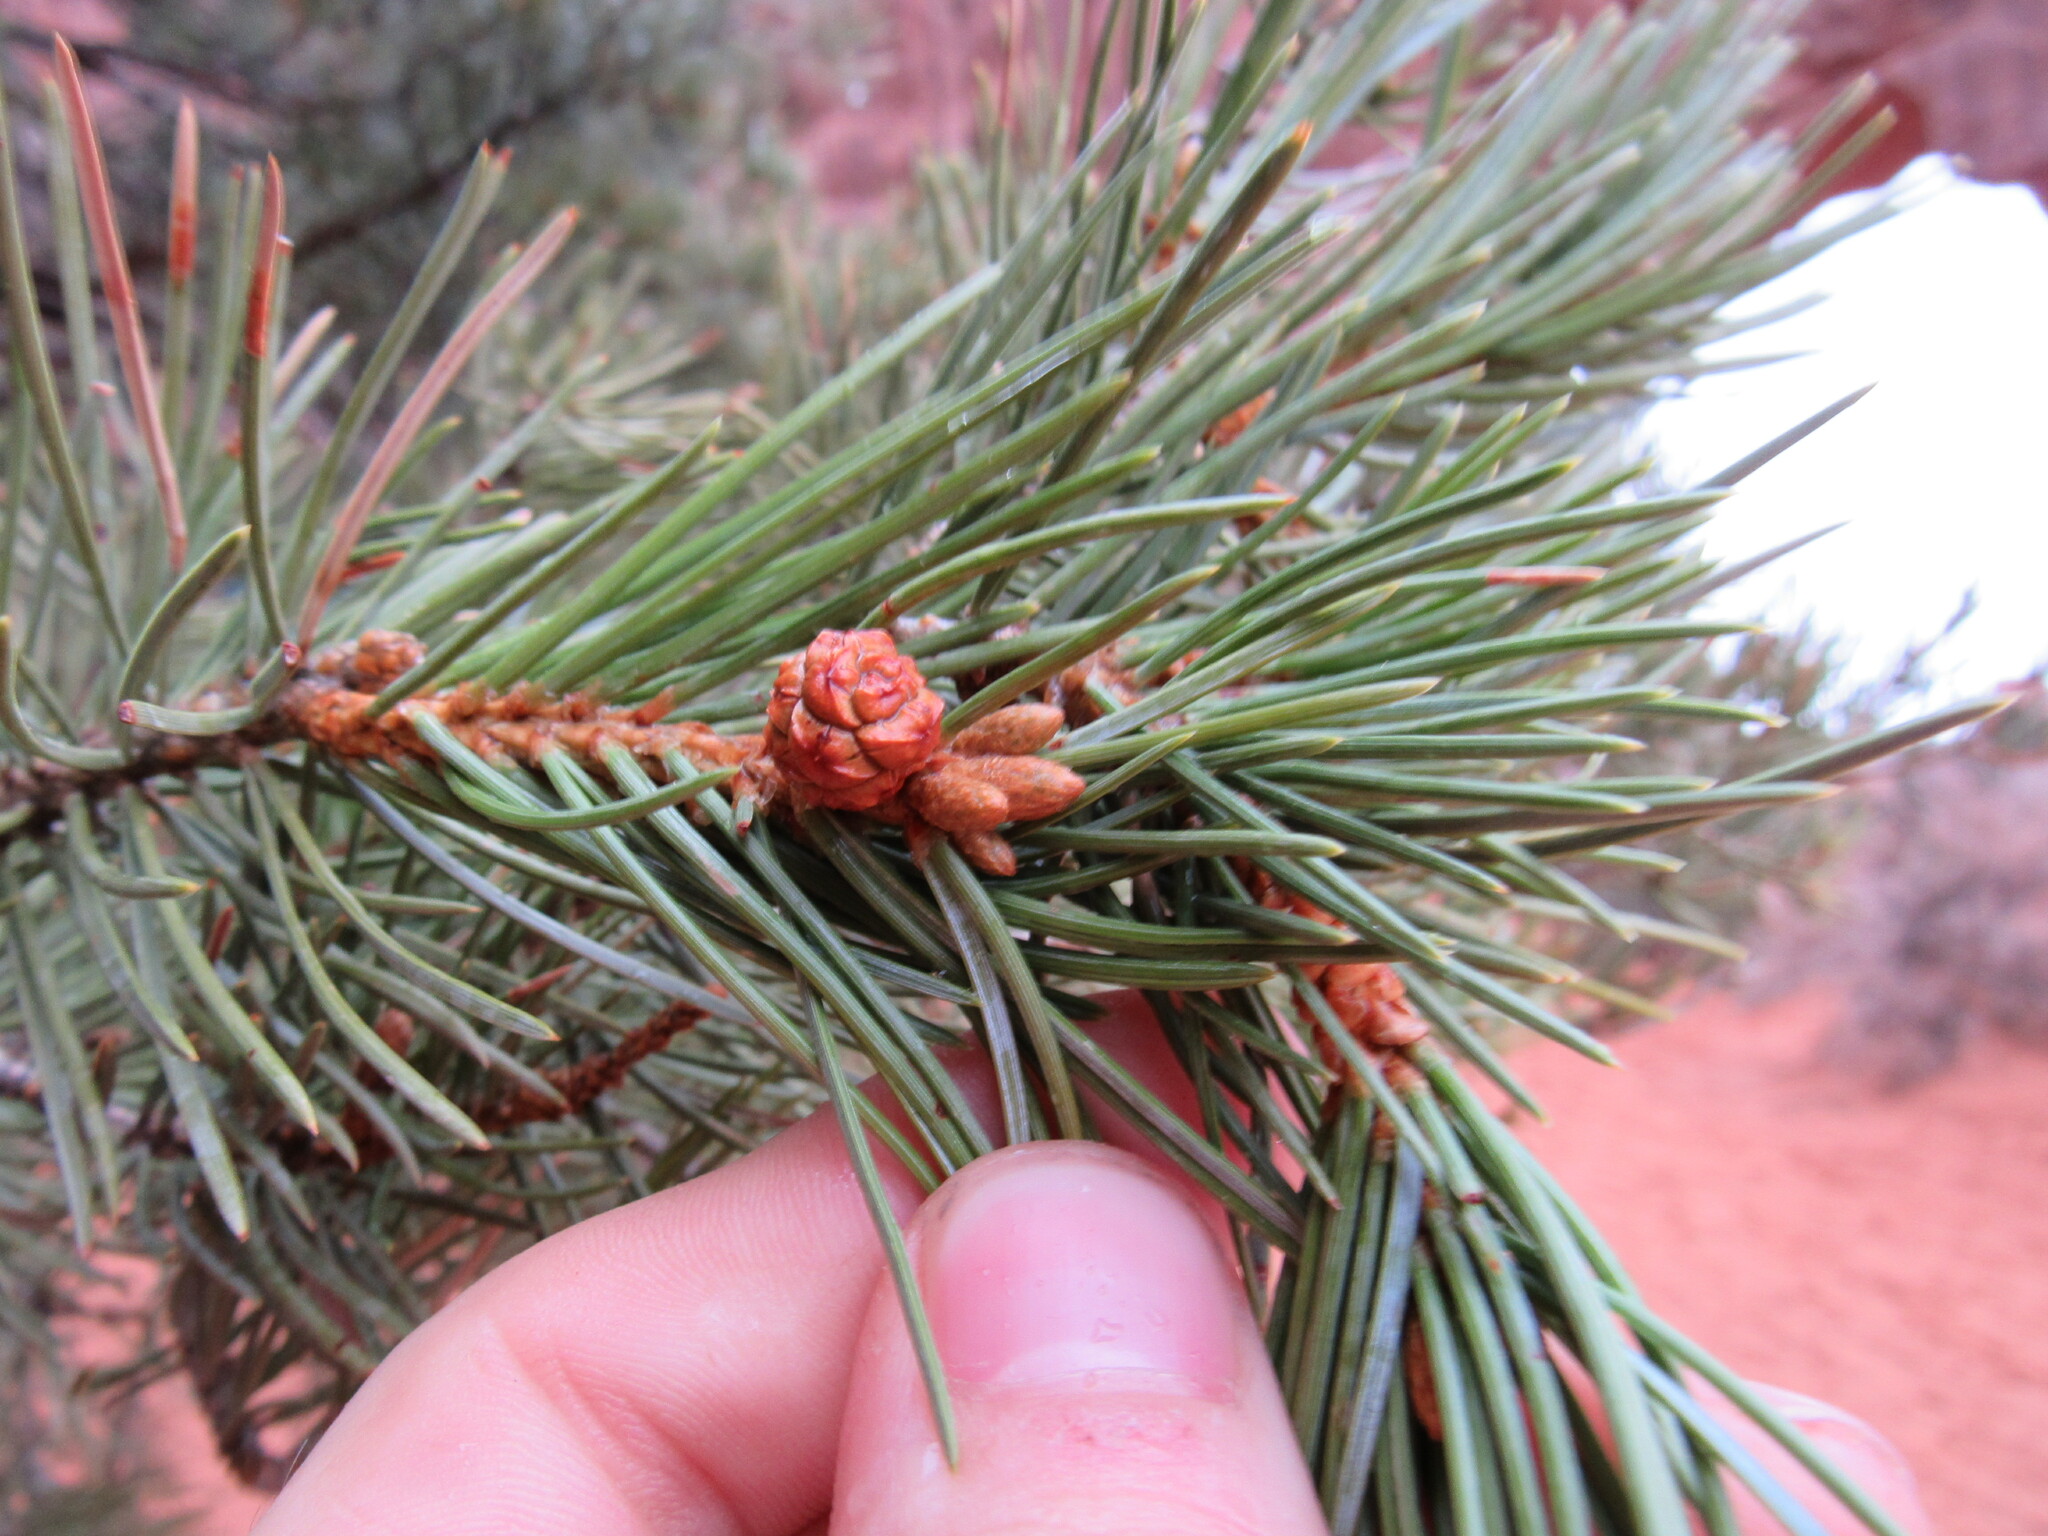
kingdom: Plantae
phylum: Tracheophyta
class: Pinopsida
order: Pinales
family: Pinaceae
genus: Pinus
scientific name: Pinus edulis
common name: Colorado pinyon
